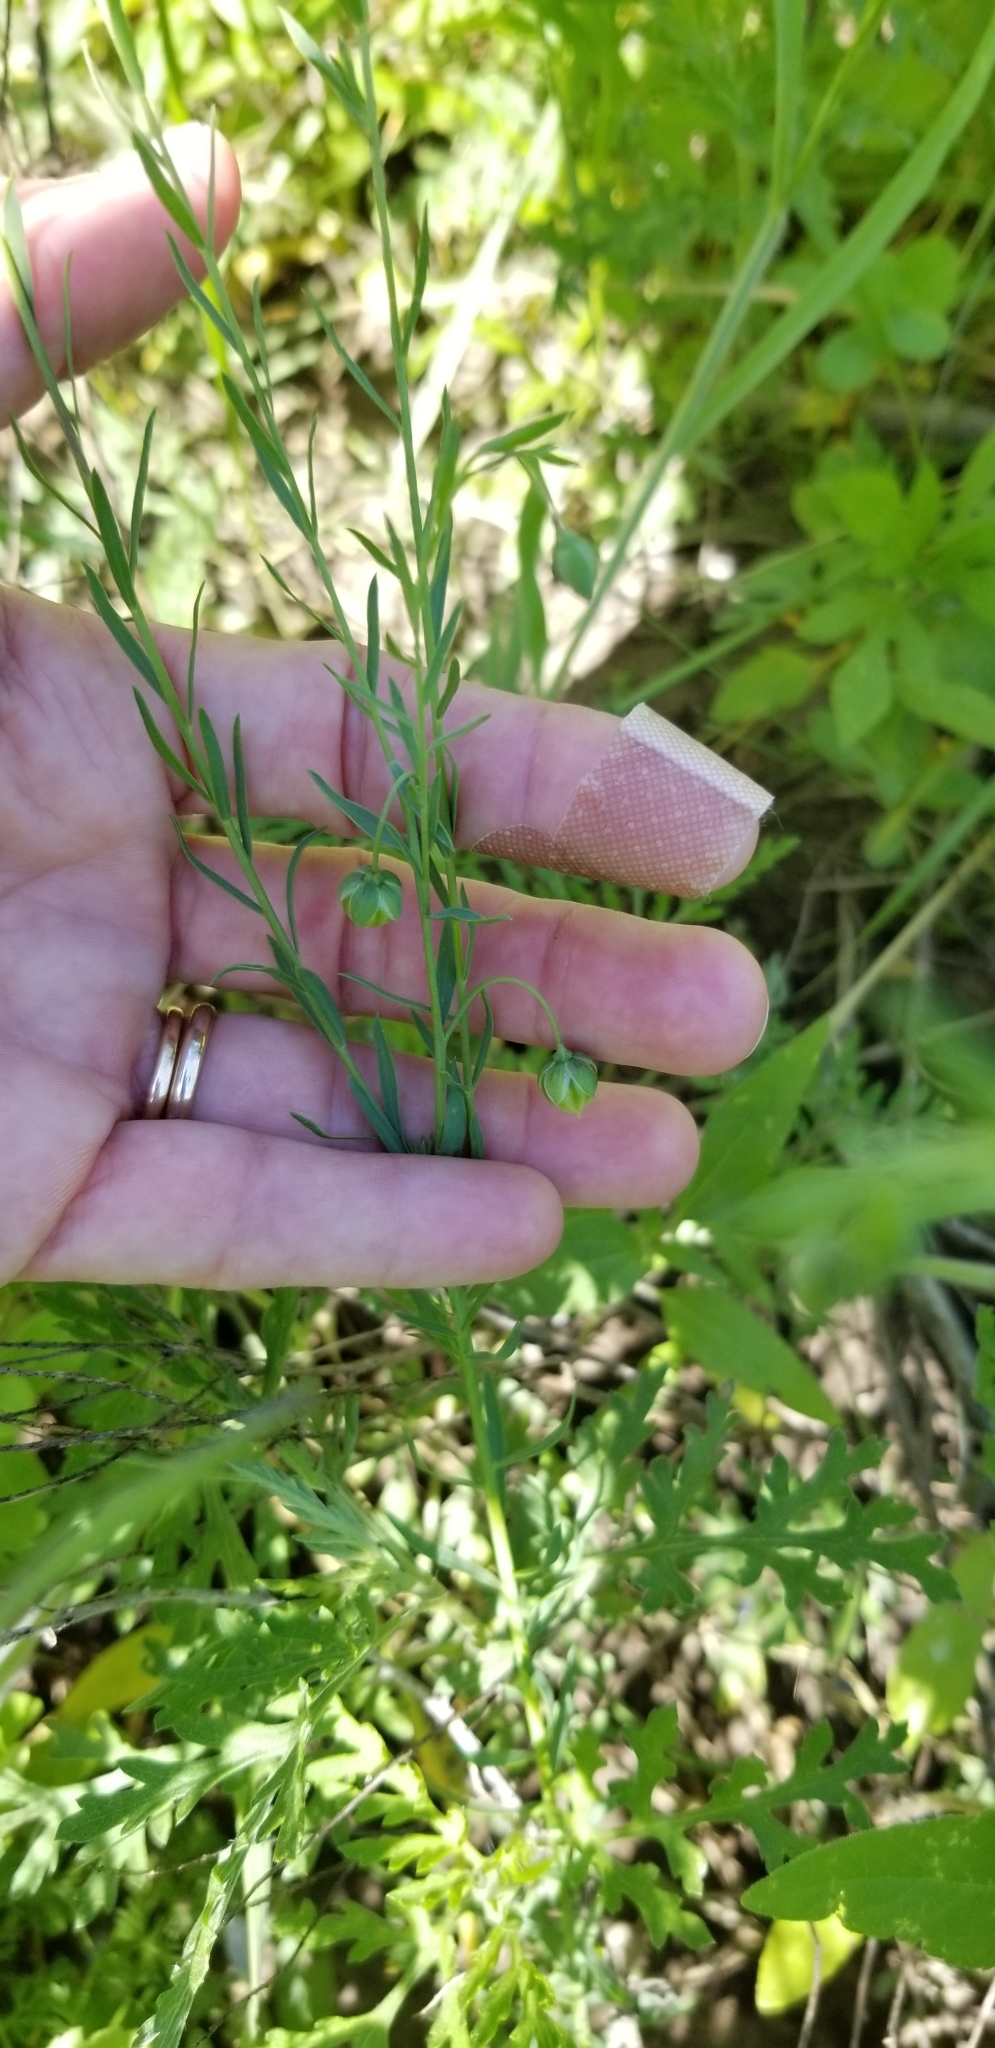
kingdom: Plantae
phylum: Tracheophyta
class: Magnoliopsida
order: Malpighiales
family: Linaceae
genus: Linum
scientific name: Linum pratense
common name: Norton's flax
